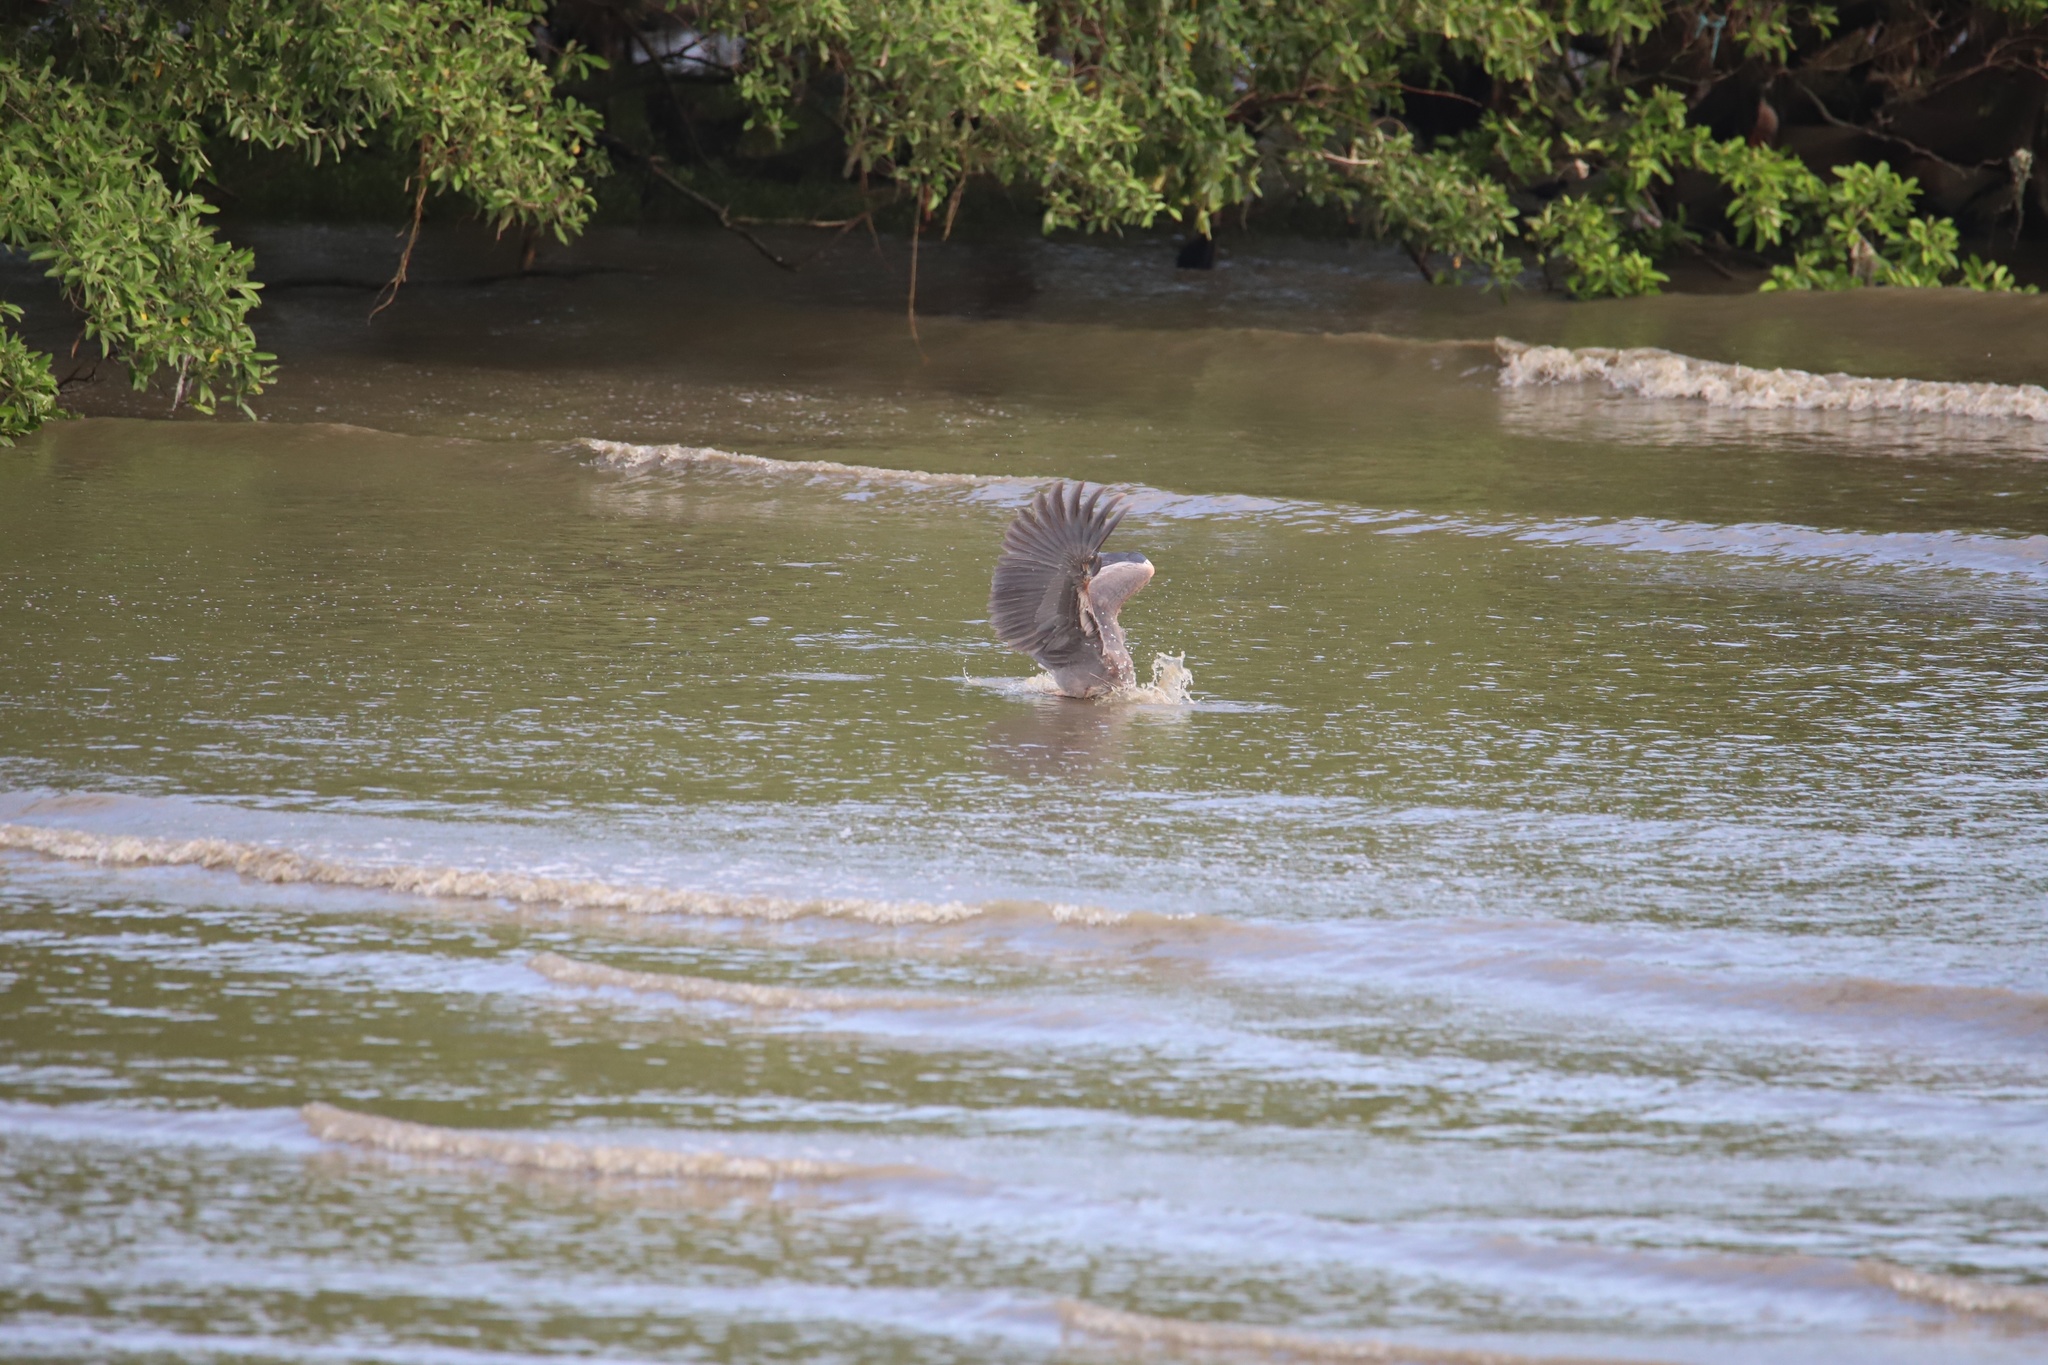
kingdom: Animalia
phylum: Chordata
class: Aves
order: Pelecaniformes
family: Ardeidae
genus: Ardea
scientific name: Ardea herodias
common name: Great blue heron
